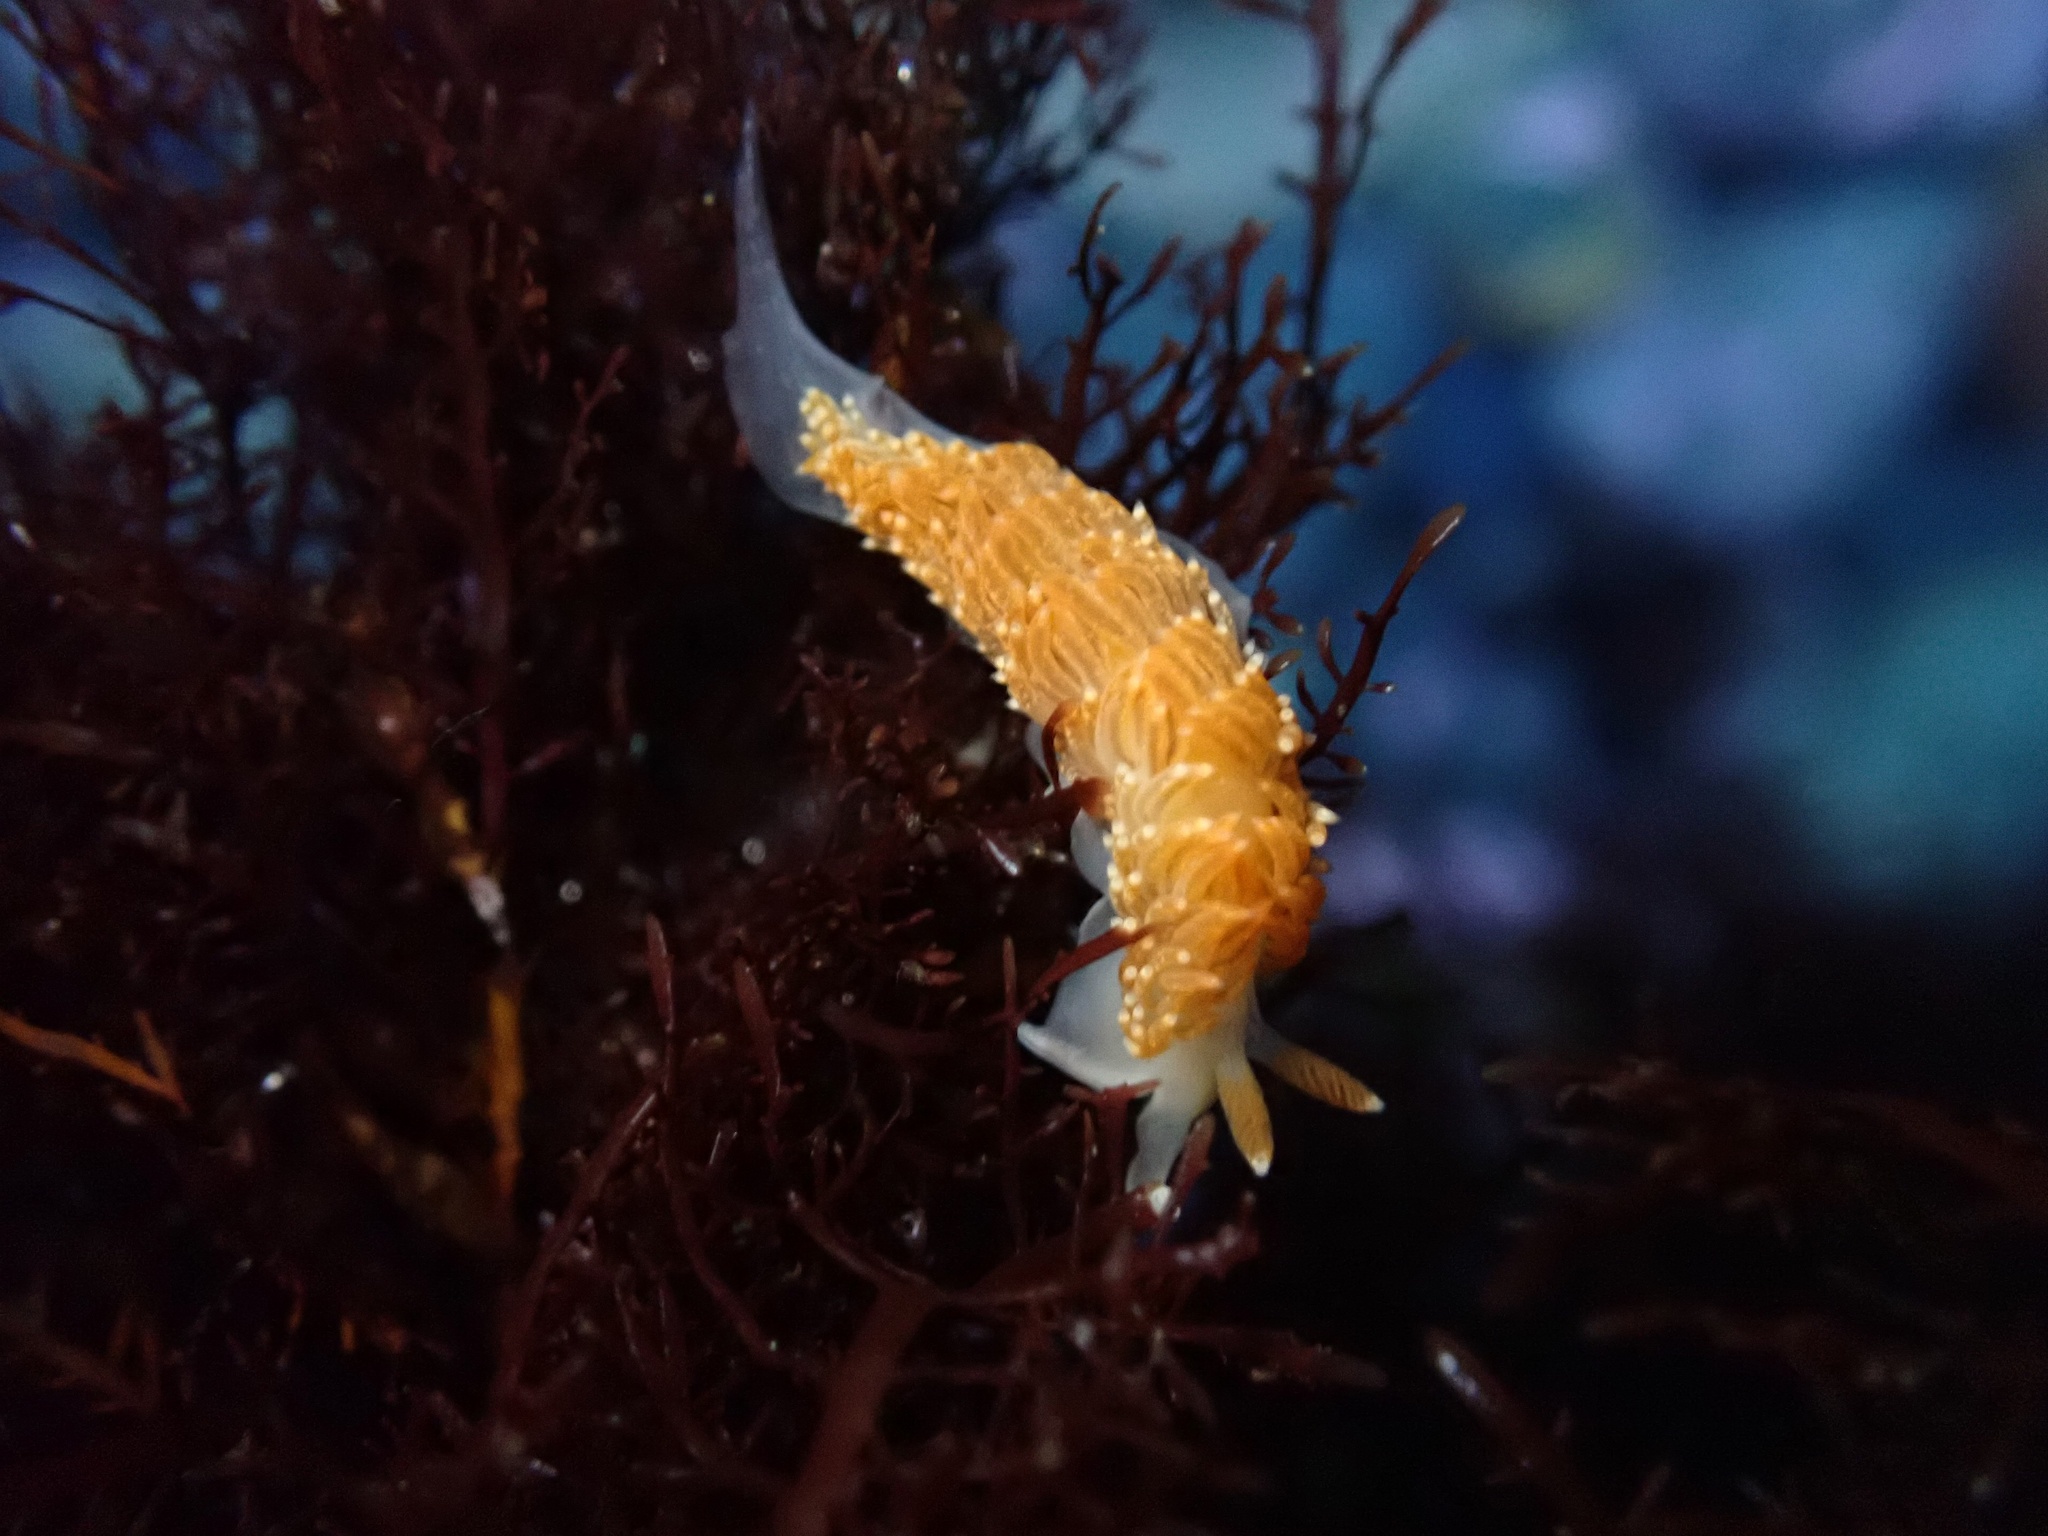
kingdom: Animalia
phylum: Mollusca
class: Gastropoda
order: Nudibranchia
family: Aeolidiidae
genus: Anteaeolidiella
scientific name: Anteaeolidiella oliviae
